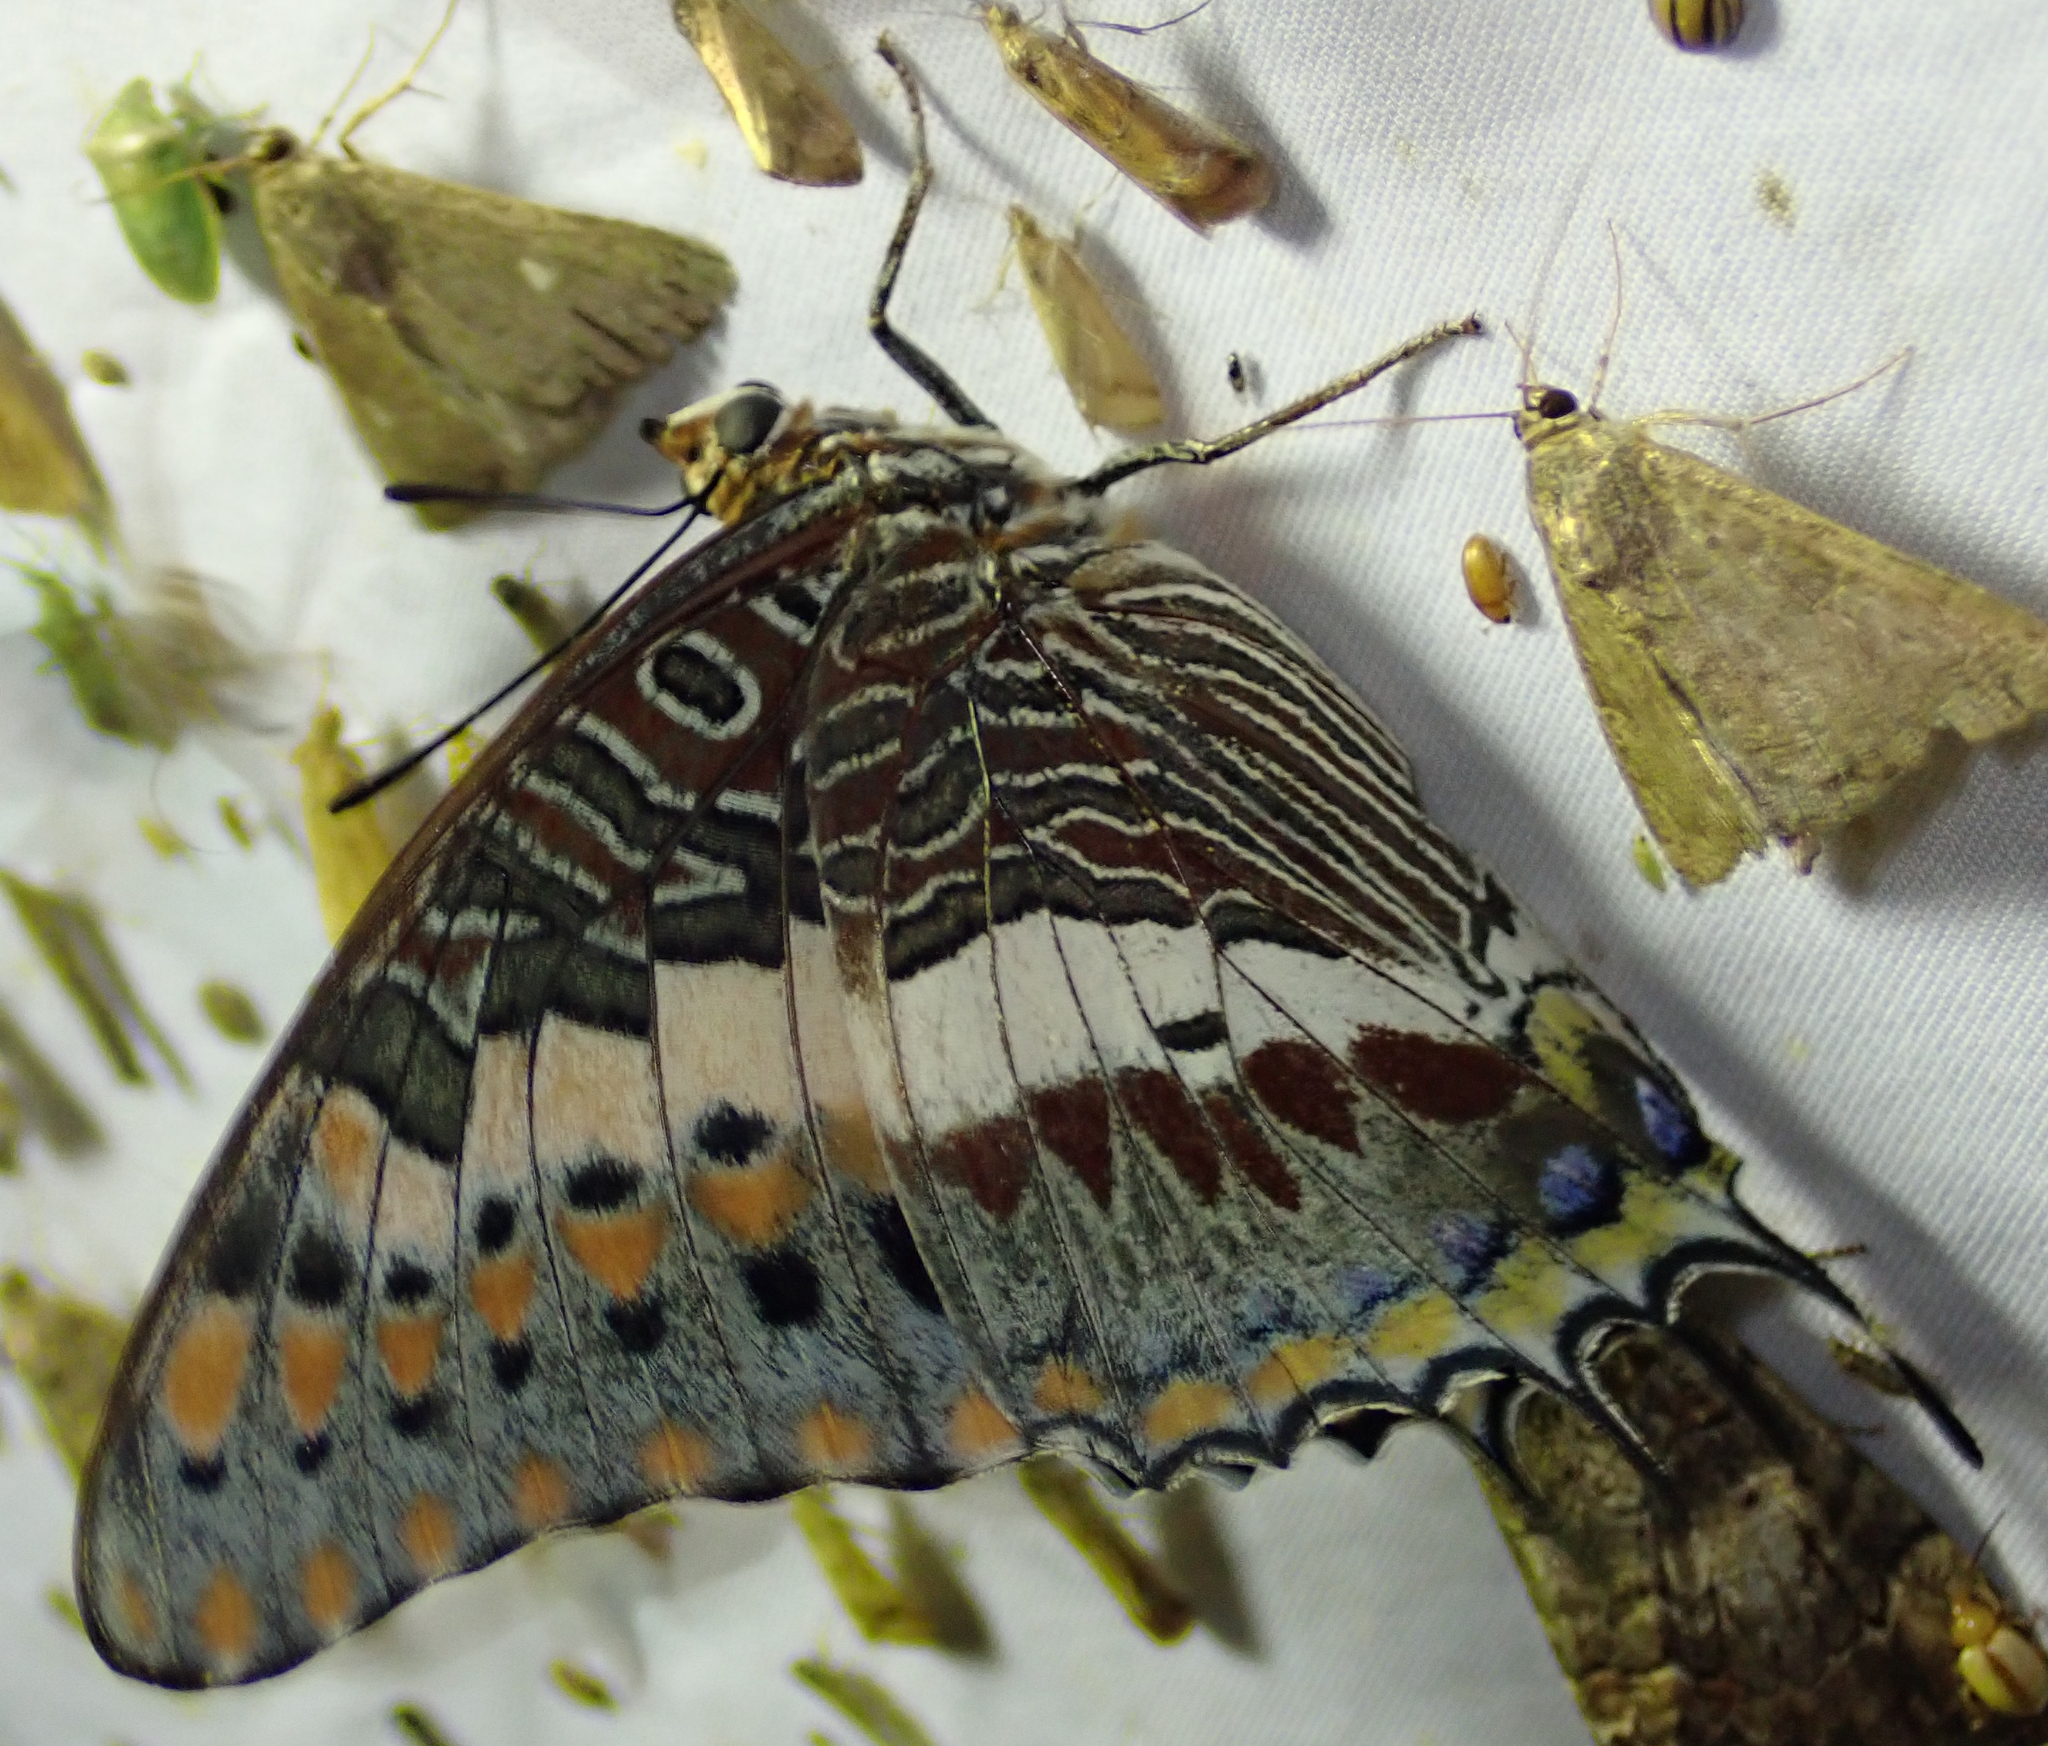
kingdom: Animalia
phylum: Arthropoda
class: Insecta
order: Lepidoptera
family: Nymphalidae
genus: Charaxes
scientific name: Charaxes jasius
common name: Two tailed pasha
